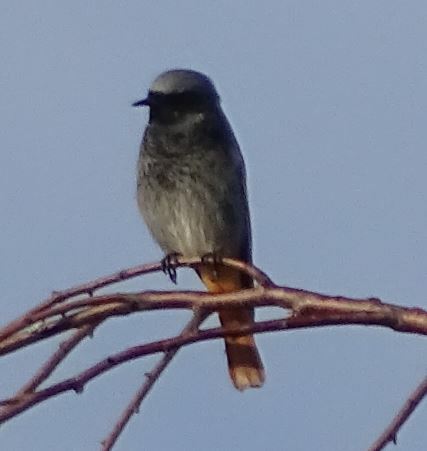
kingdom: Animalia
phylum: Chordata
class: Aves
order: Passeriformes
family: Muscicapidae
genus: Phoenicurus
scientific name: Phoenicurus ochruros
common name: Black redstart
